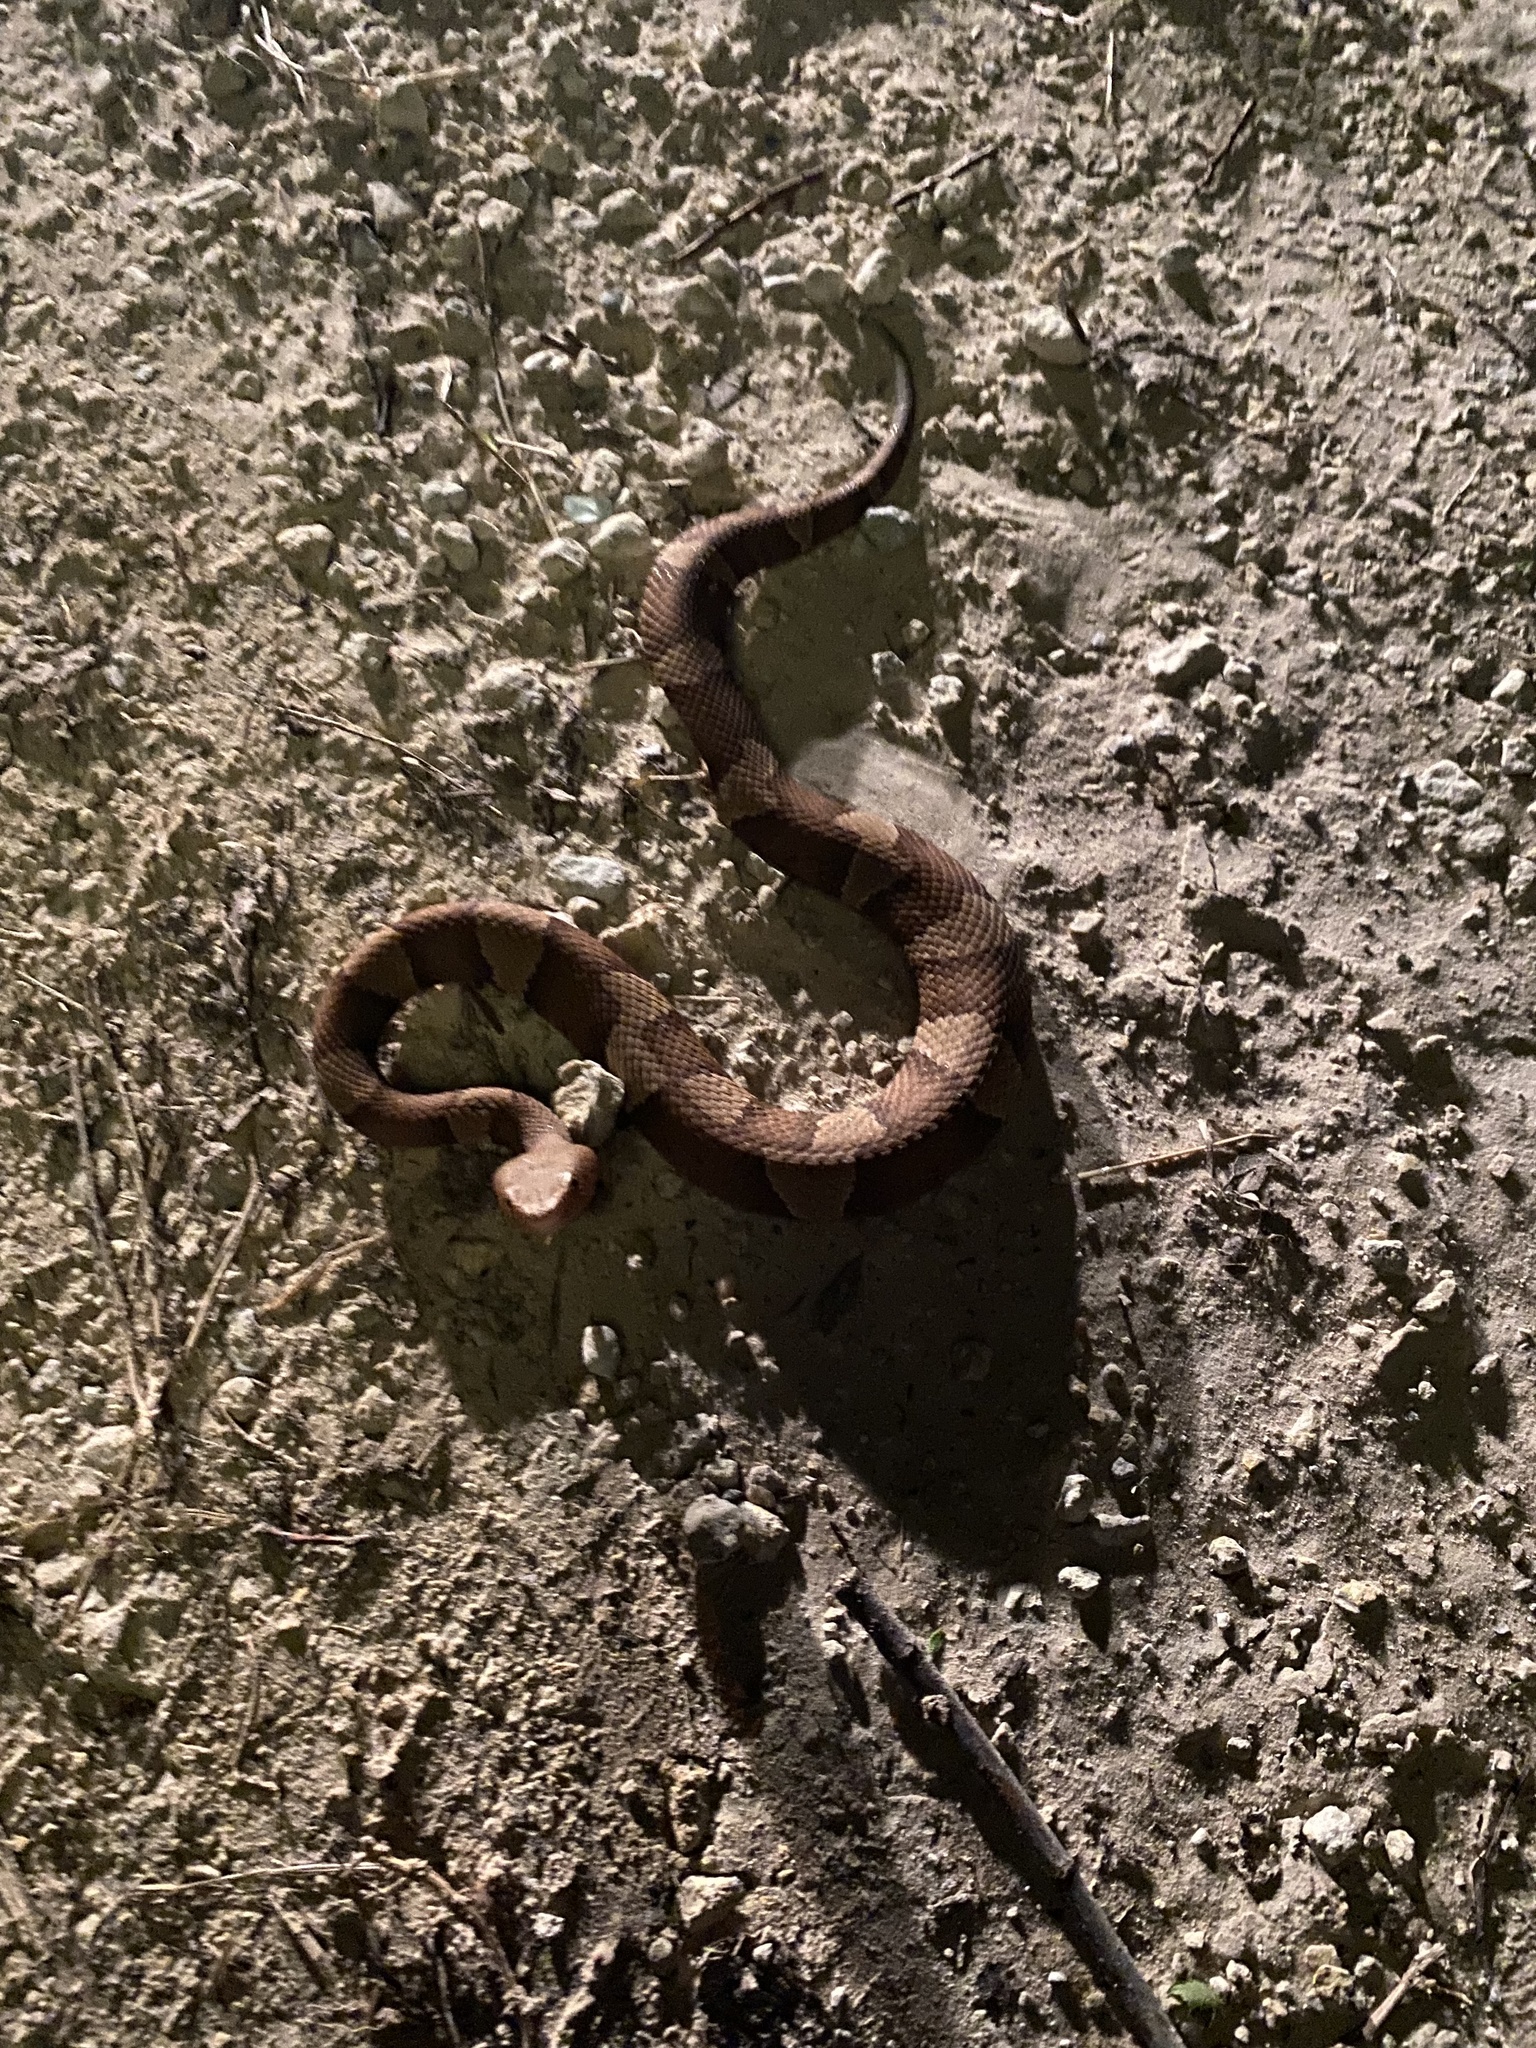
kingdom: Animalia
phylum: Chordata
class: Squamata
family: Viperidae
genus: Agkistrodon
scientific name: Agkistrodon laticinctus
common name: Broad-banded copperhead
